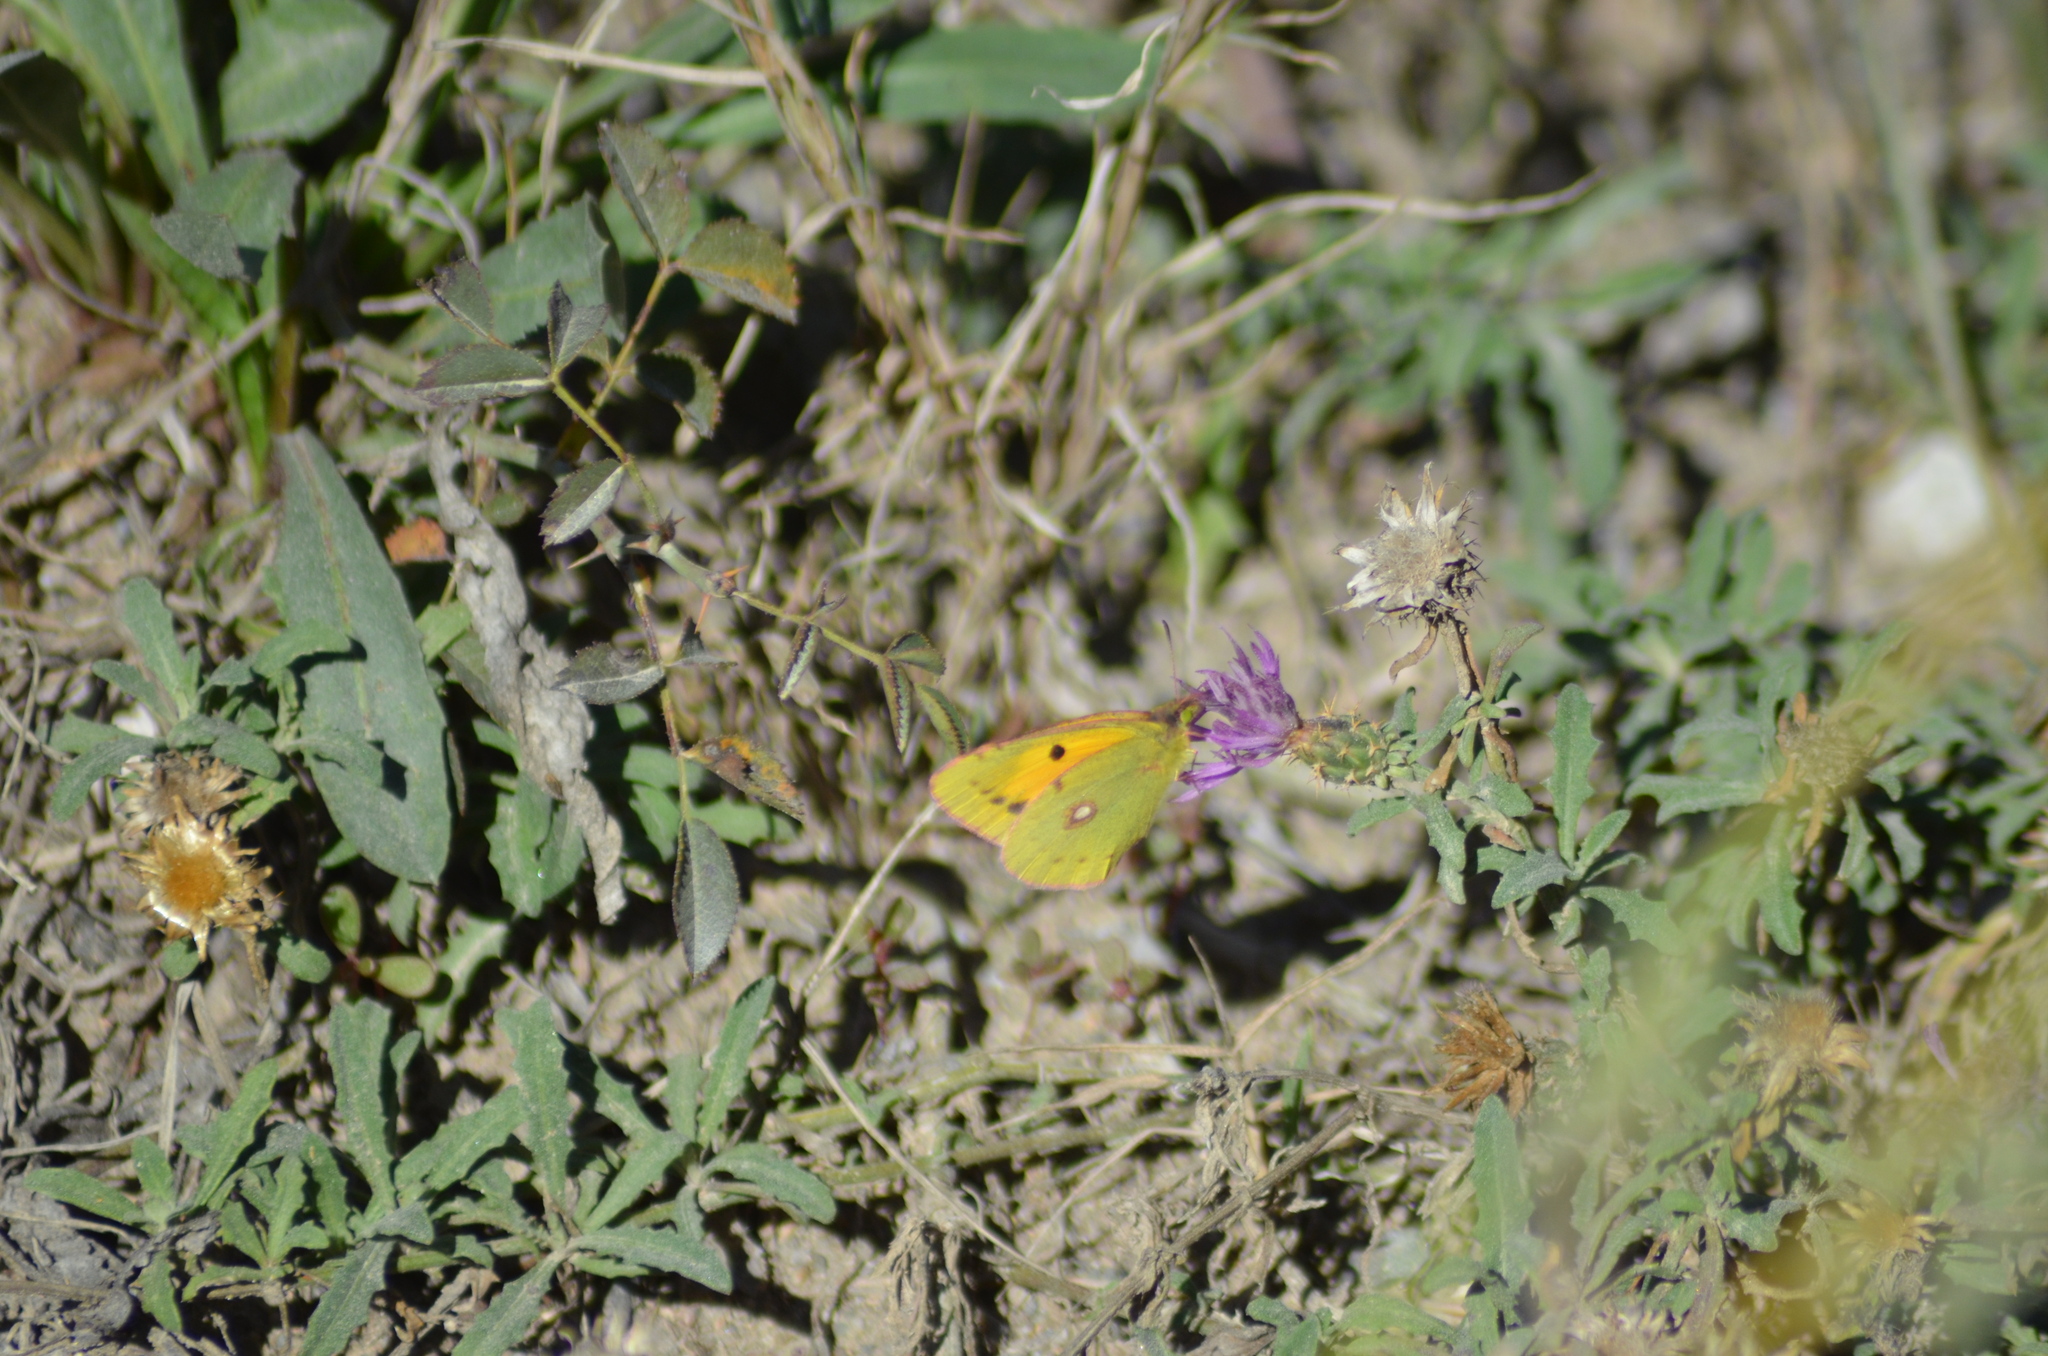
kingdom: Animalia
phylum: Arthropoda
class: Insecta
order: Lepidoptera
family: Pieridae
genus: Colias
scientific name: Colias croceus
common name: Clouded yellow
